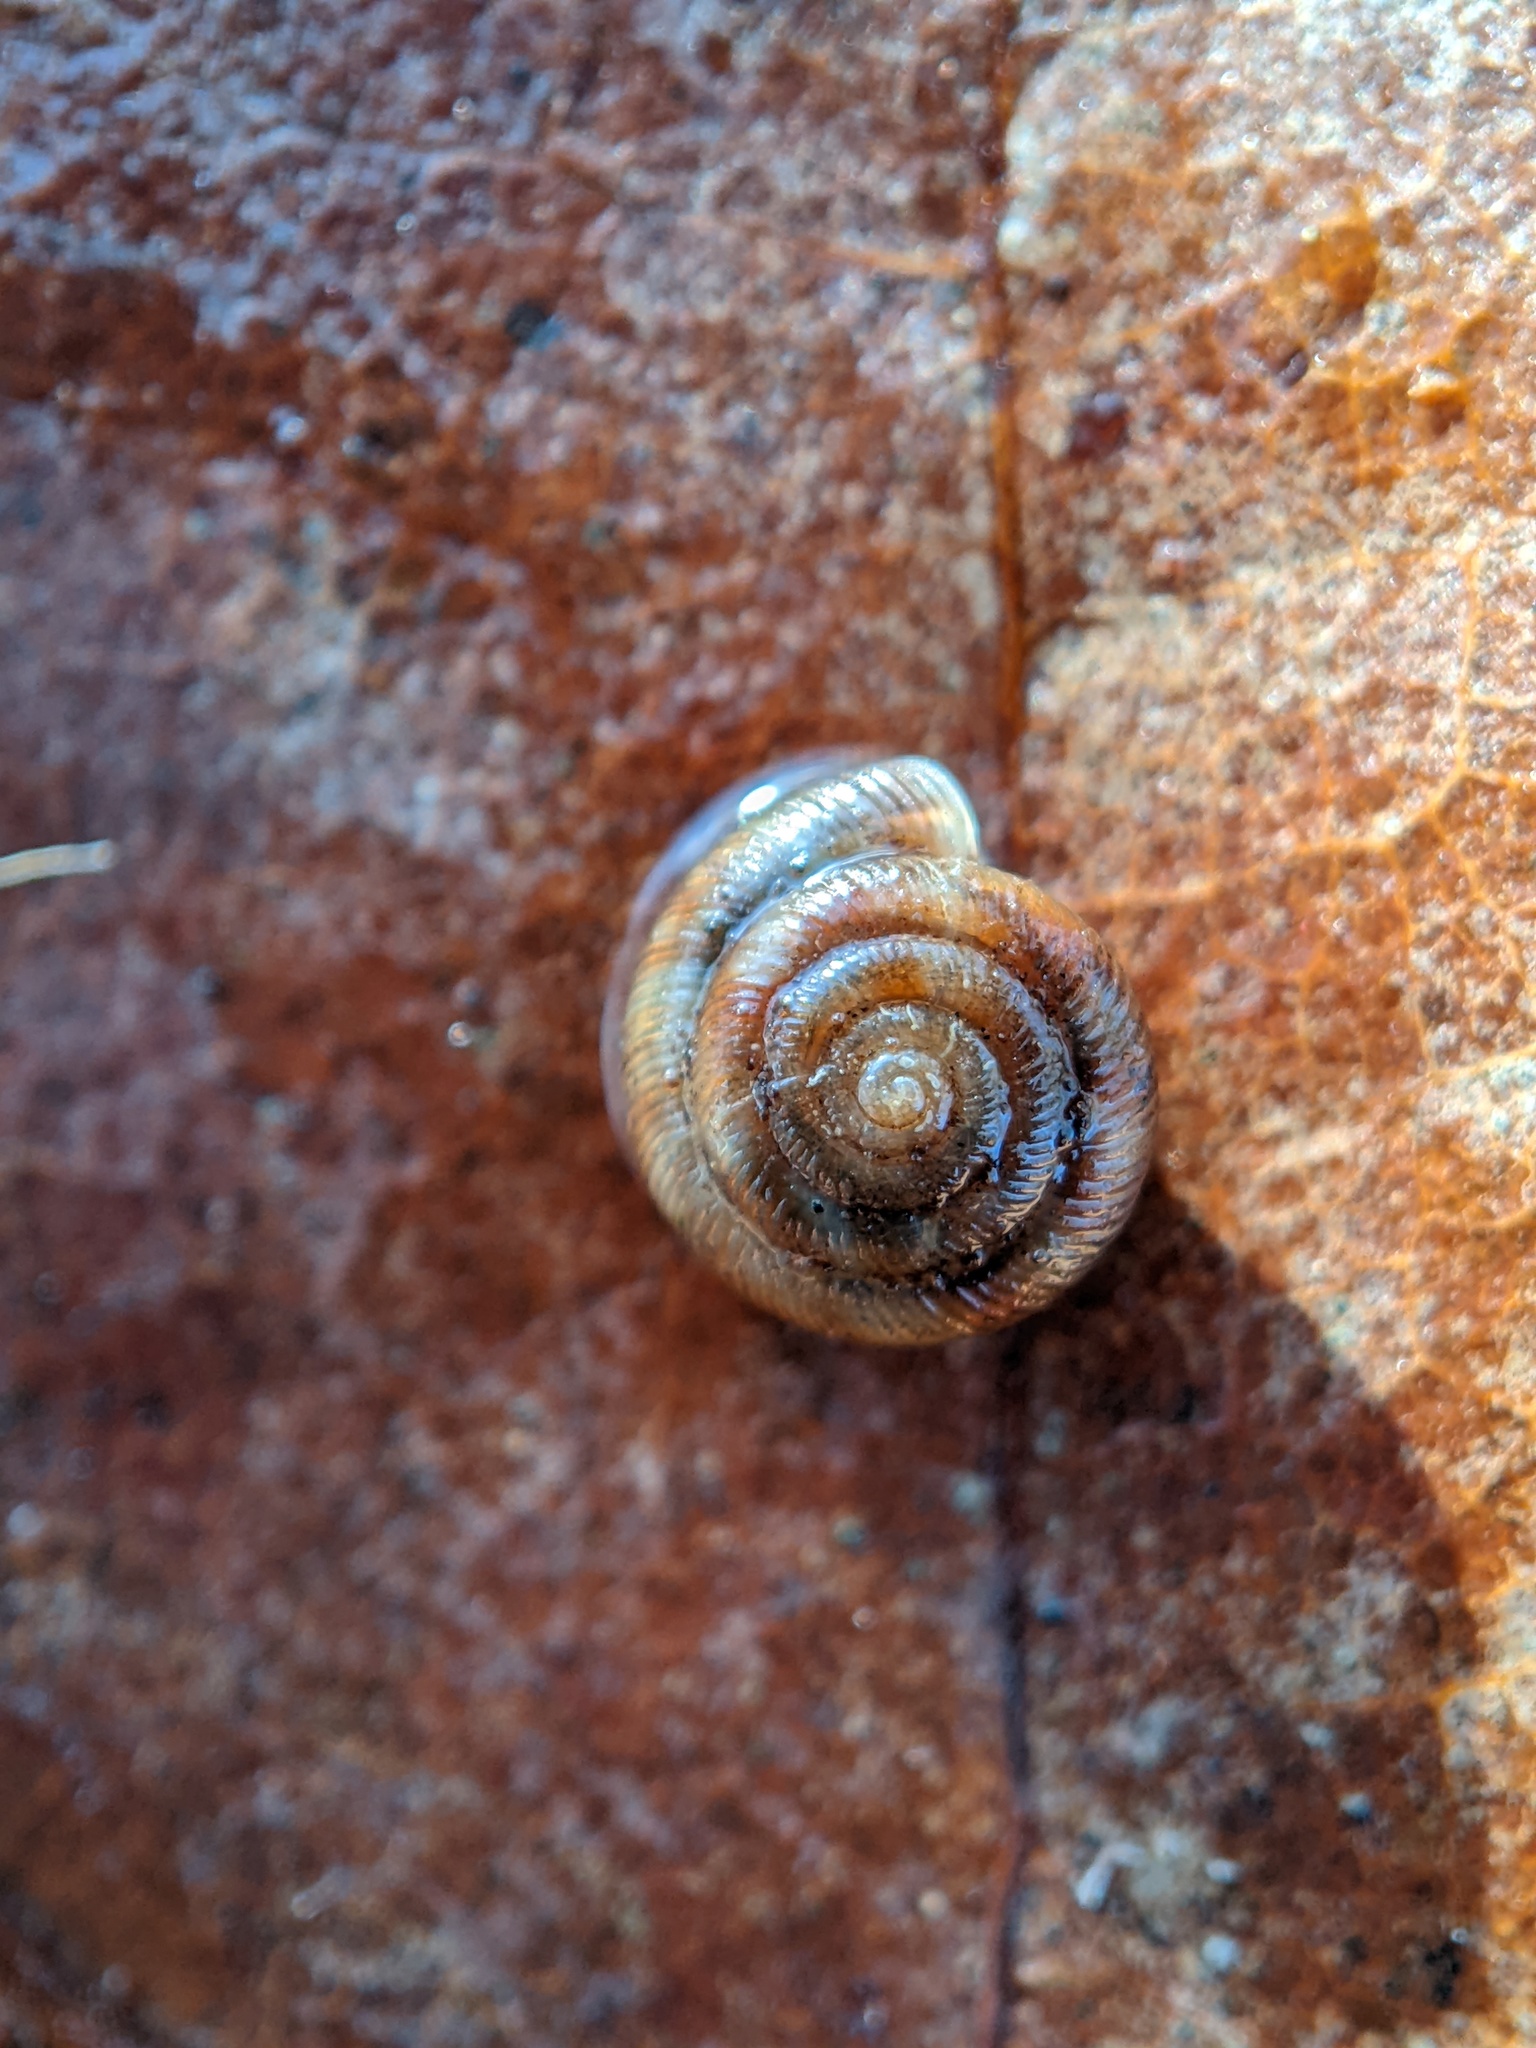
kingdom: Animalia
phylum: Mollusca
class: Gastropoda
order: Stylommatophora
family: Discidae
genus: Discus
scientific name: Discus rotundatus
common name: Rounded snail
